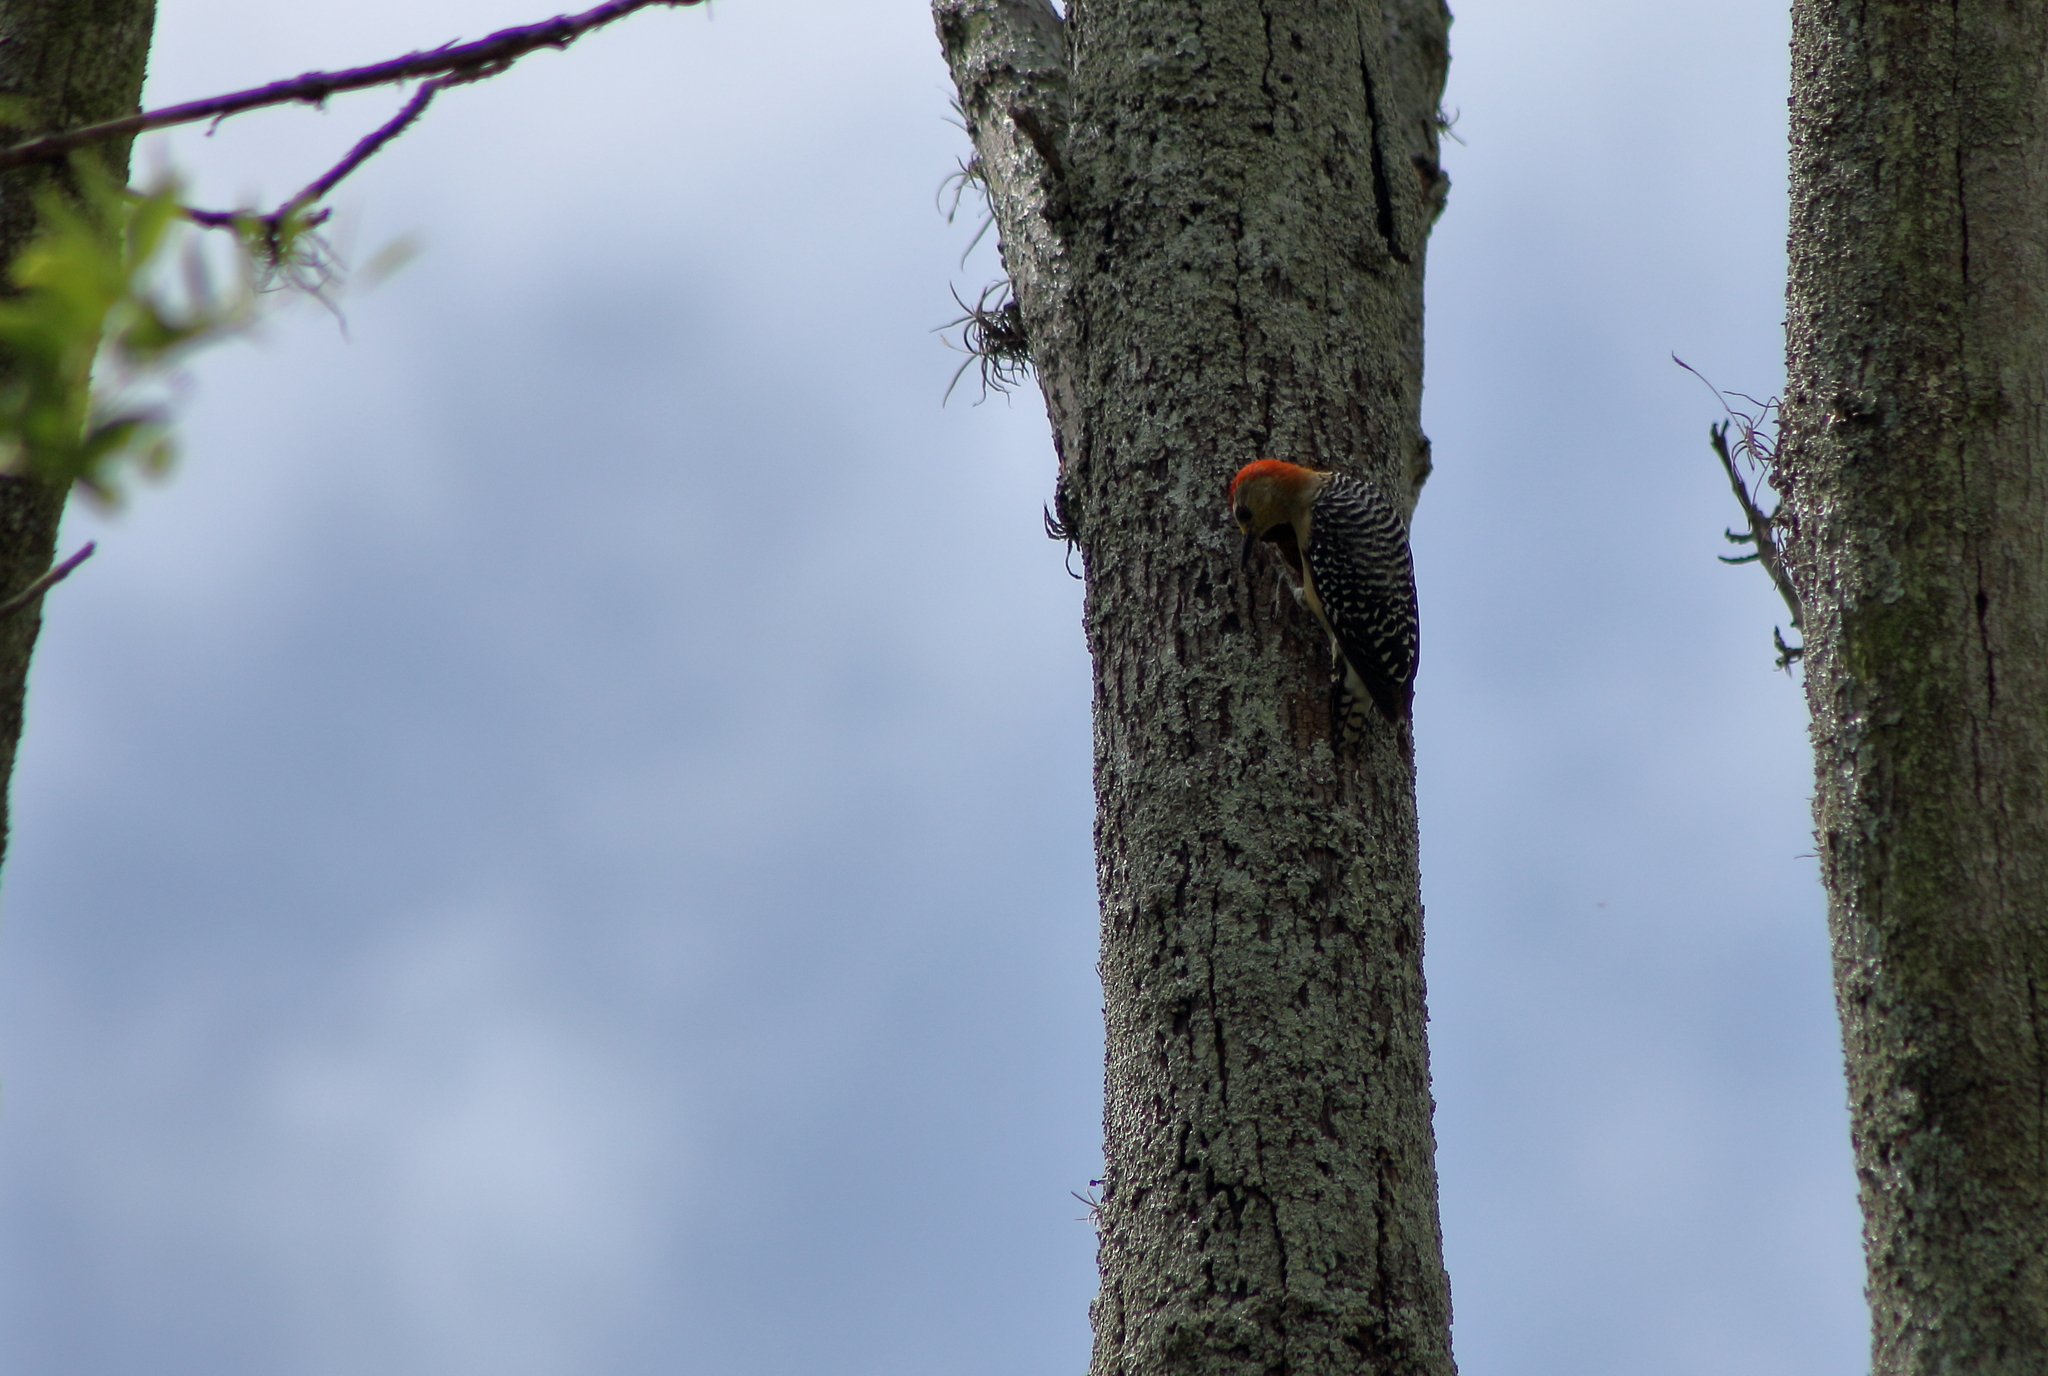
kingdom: Animalia
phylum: Chordata
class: Aves
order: Piciformes
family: Picidae
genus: Melanerpes
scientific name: Melanerpes rubricapillus
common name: Red-crowned woodpecker
